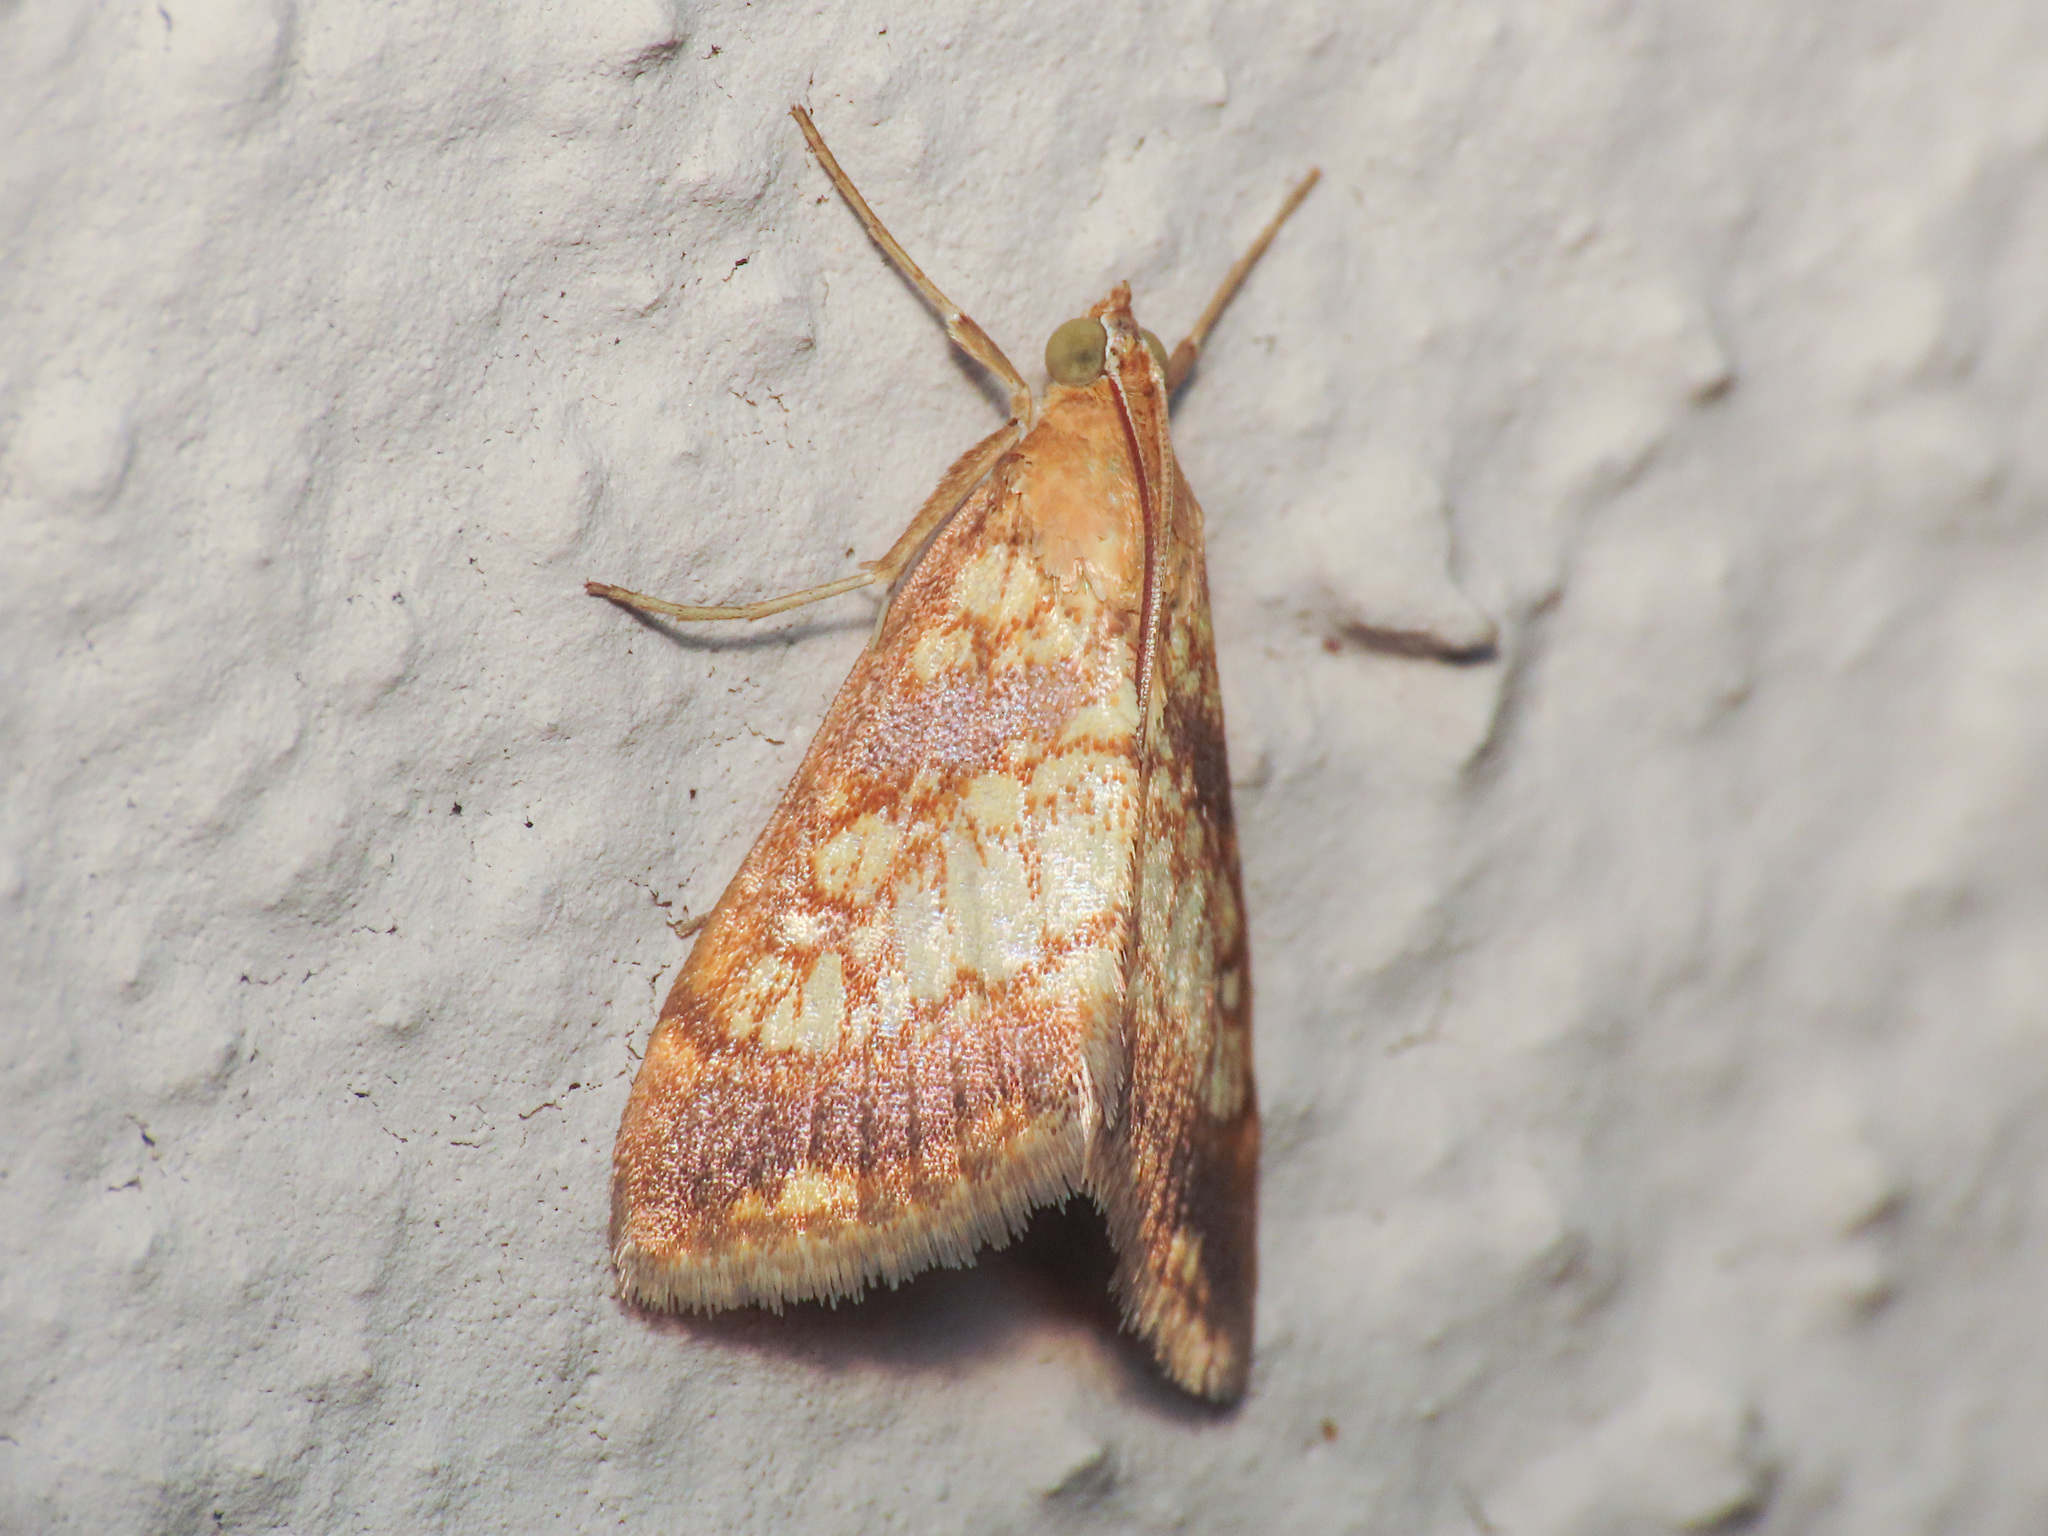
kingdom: Animalia
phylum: Arthropoda
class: Insecta
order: Lepidoptera
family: Crambidae
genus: Evergestis
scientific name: Evergestis politalis
